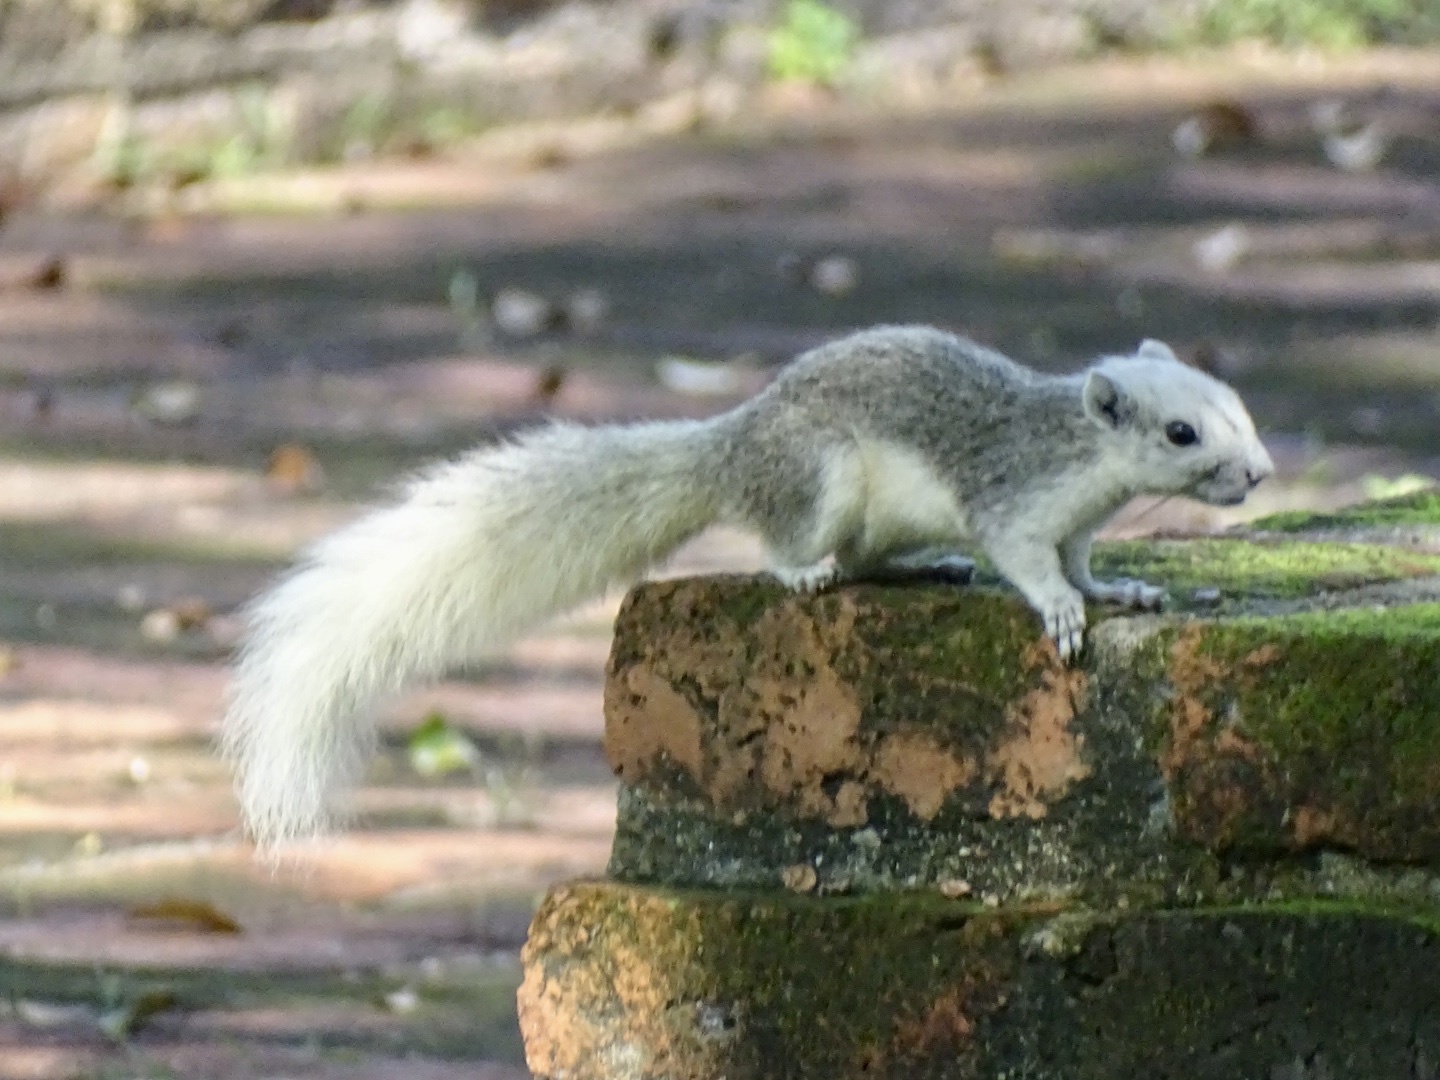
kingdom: Animalia
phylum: Chordata
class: Mammalia
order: Rodentia
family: Sciuridae
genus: Callosciurus
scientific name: Callosciurus finlaysonii
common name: Finlayson's squirrel
